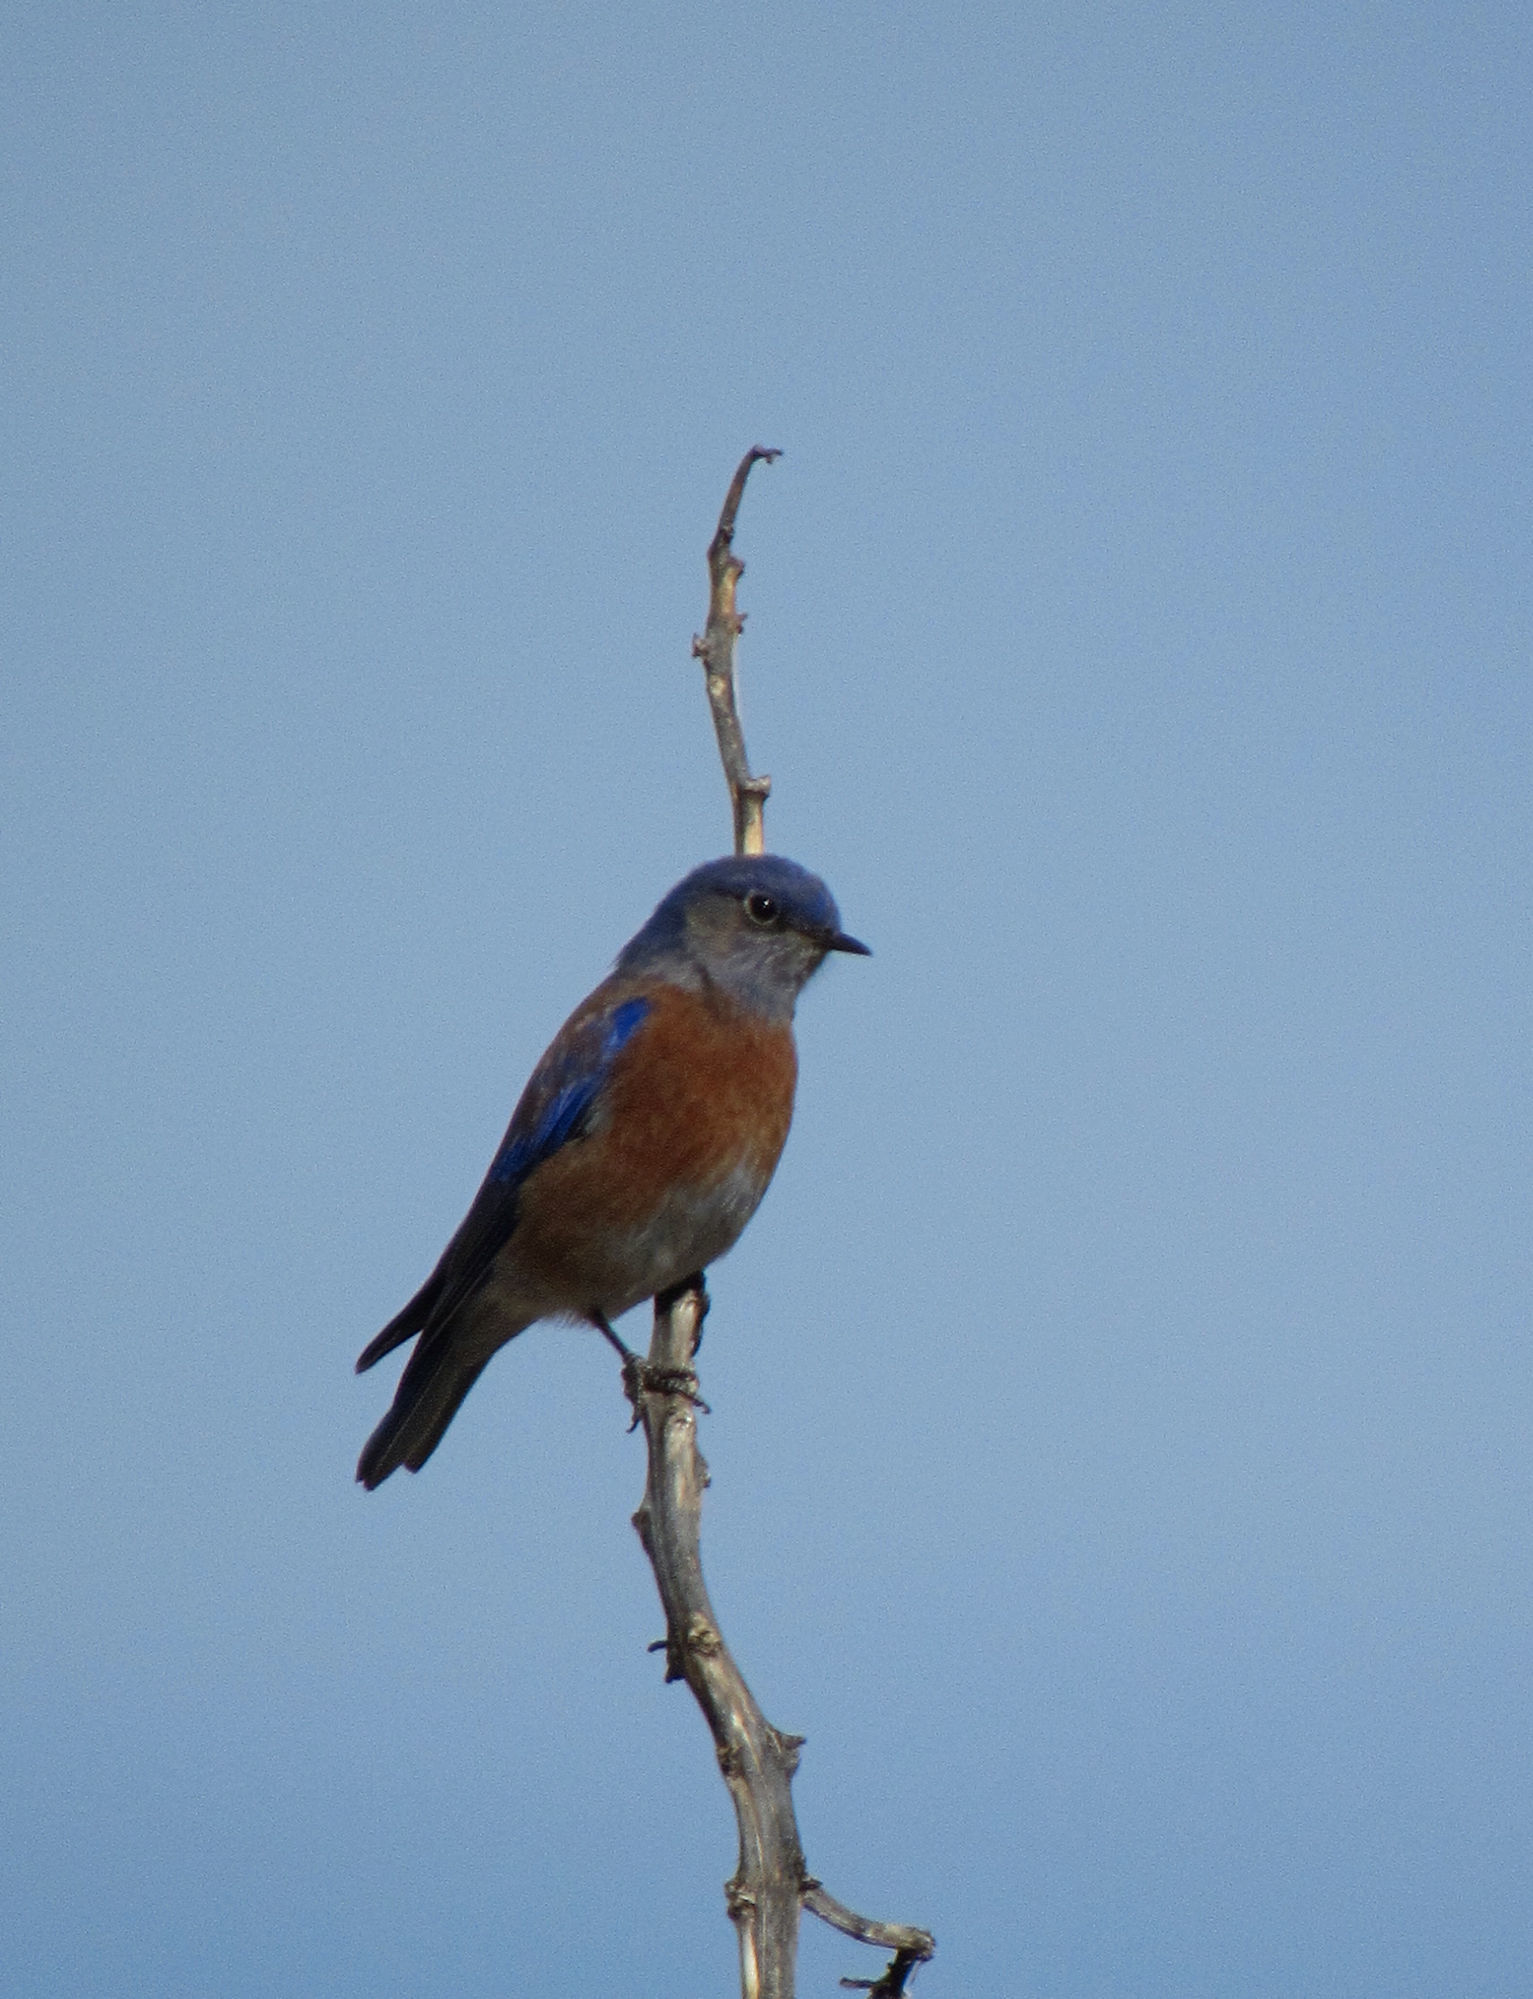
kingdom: Animalia
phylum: Chordata
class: Aves
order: Passeriformes
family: Turdidae
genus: Sialia
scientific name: Sialia mexicana
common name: Western bluebird
